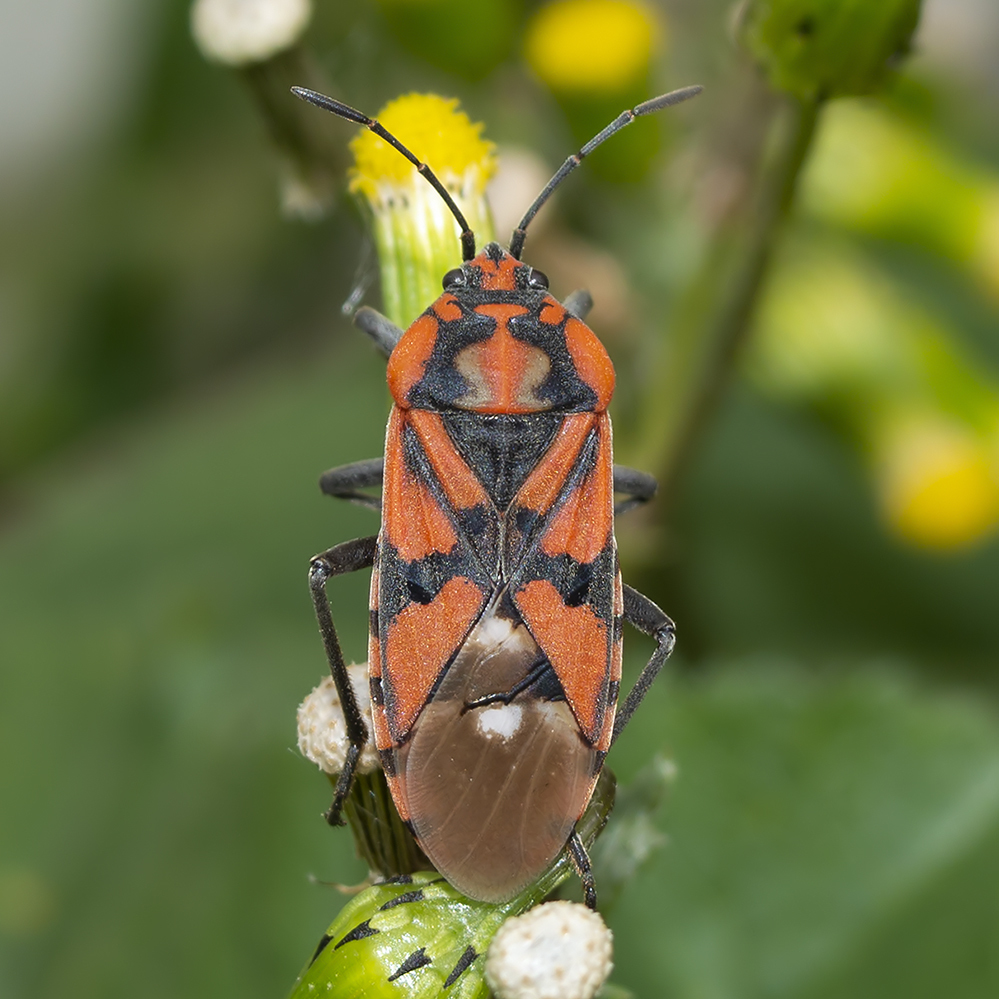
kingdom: Animalia
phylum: Arthropoda
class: Insecta
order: Hemiptera
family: Lygaeidae
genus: Spilostethus
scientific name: Spilostethus pandurus
